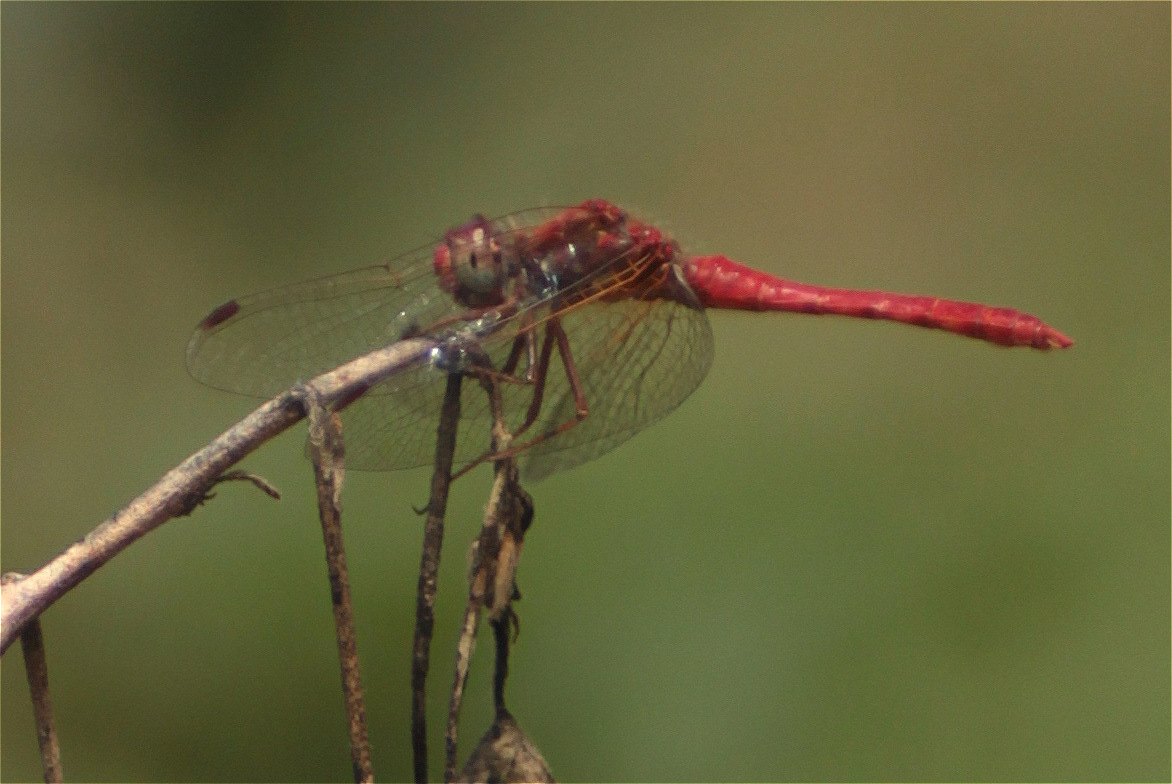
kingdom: Animalia
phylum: Arthropoda
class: Insecta
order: Odonata
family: Libellulidae
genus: Sympetrum
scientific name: Sympetrum gilvum
